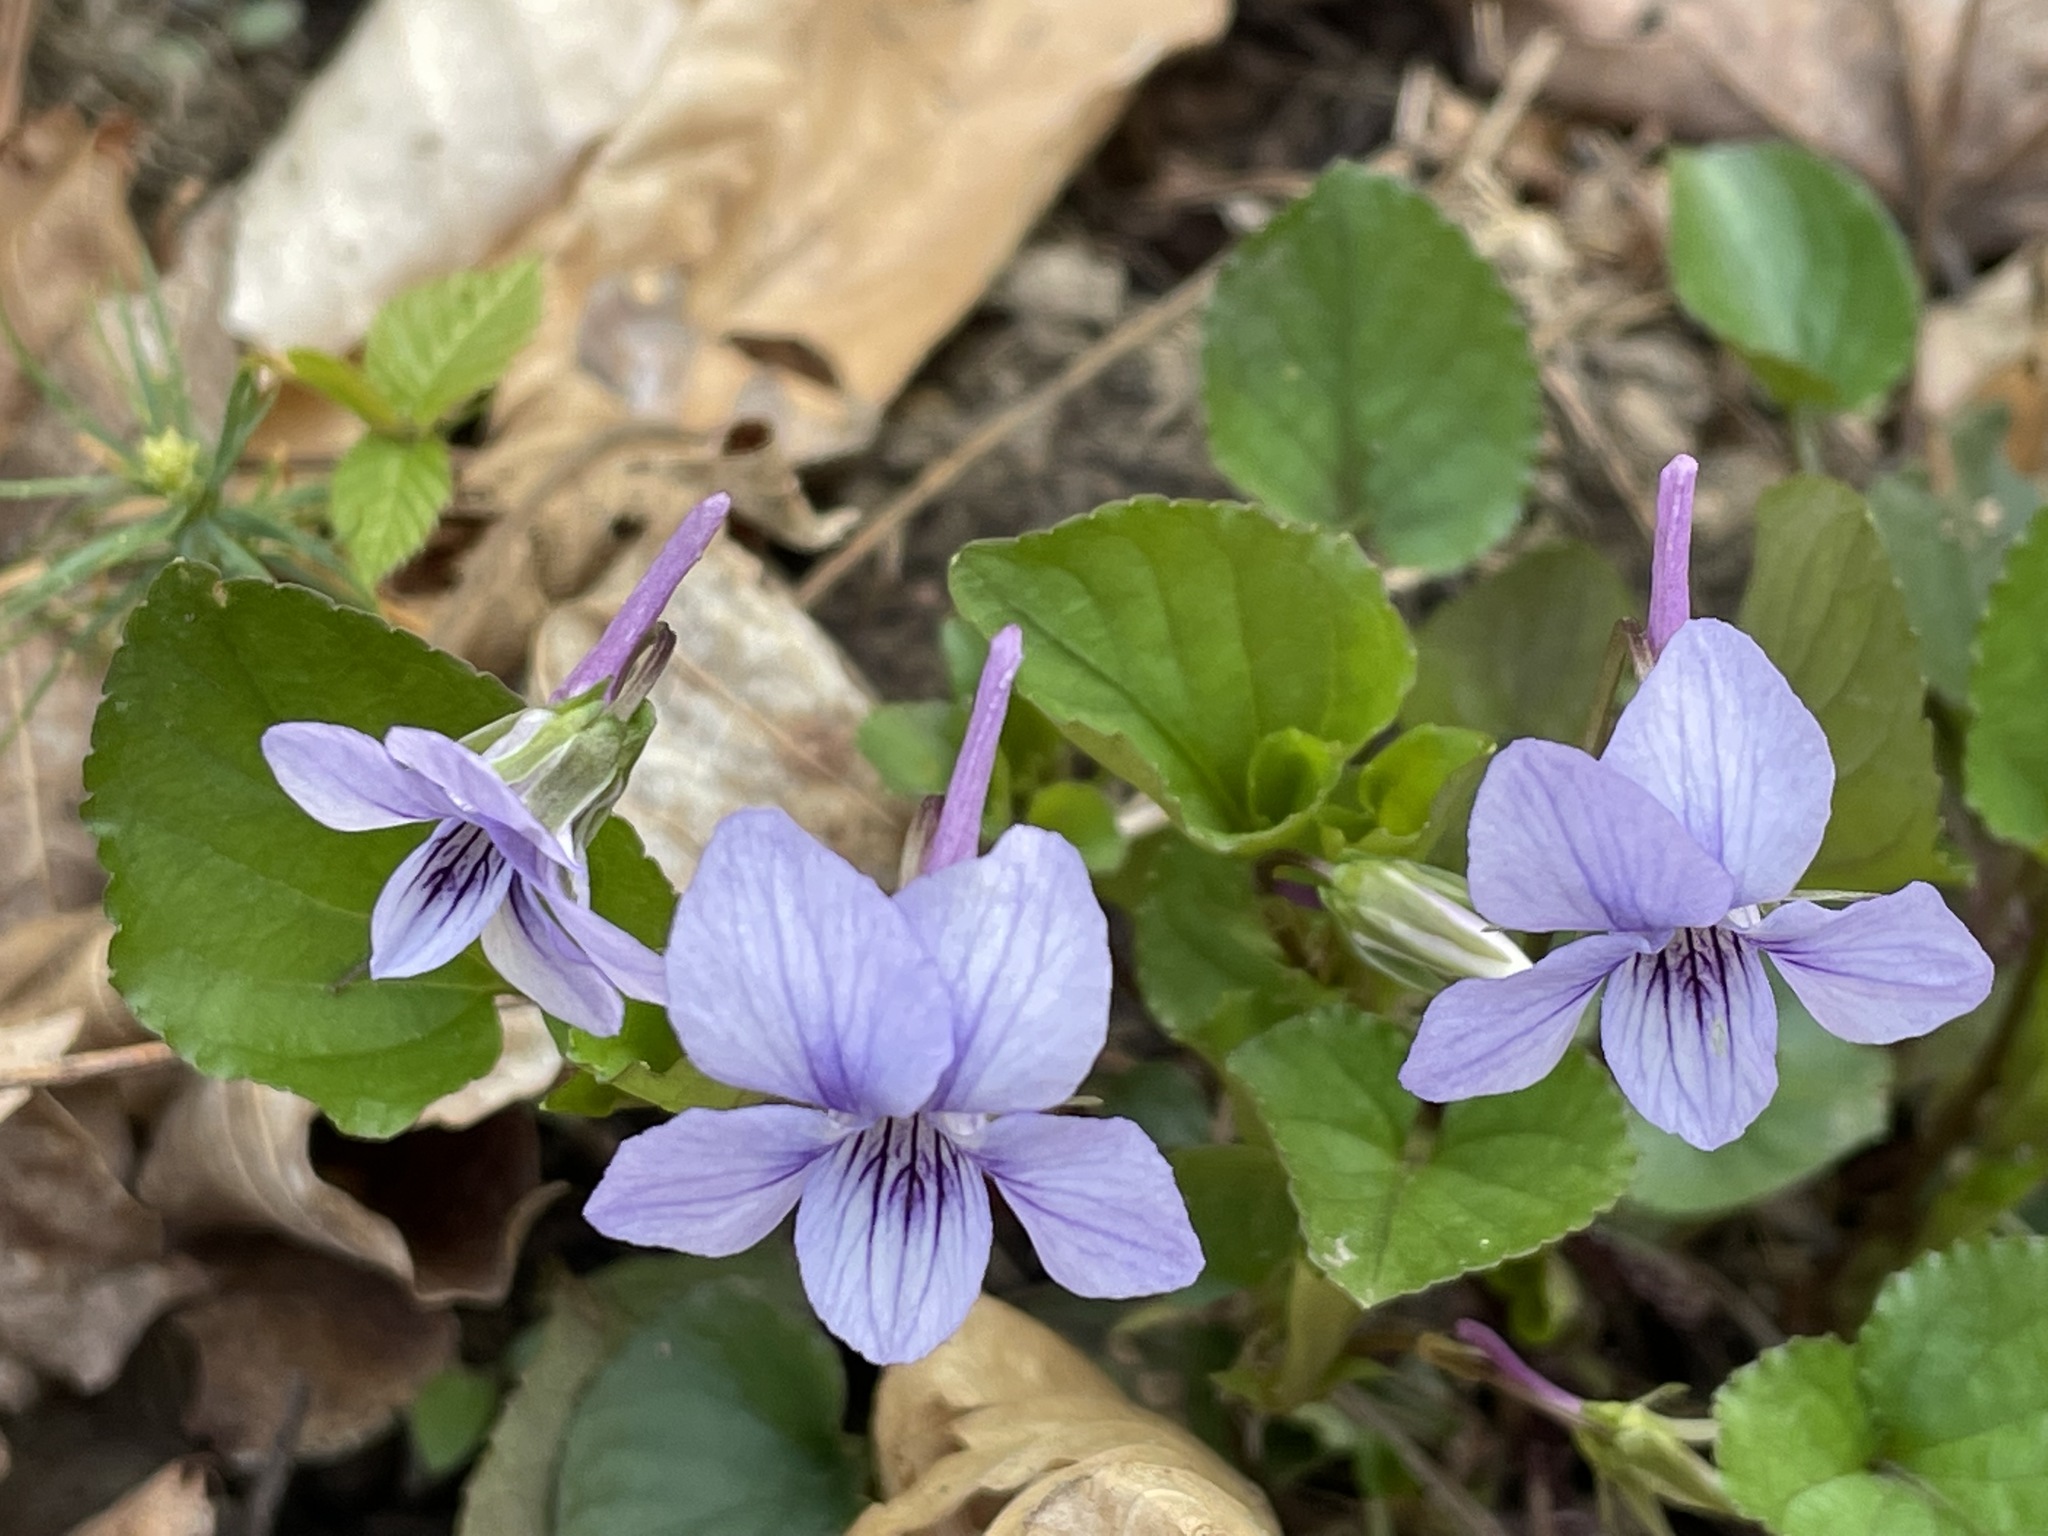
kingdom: Plantae
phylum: Tracheophyta
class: Magnoliopsida
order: Malpighiales
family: Violaceae
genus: Viola
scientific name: Viola rostrata
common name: Long-spur violet
